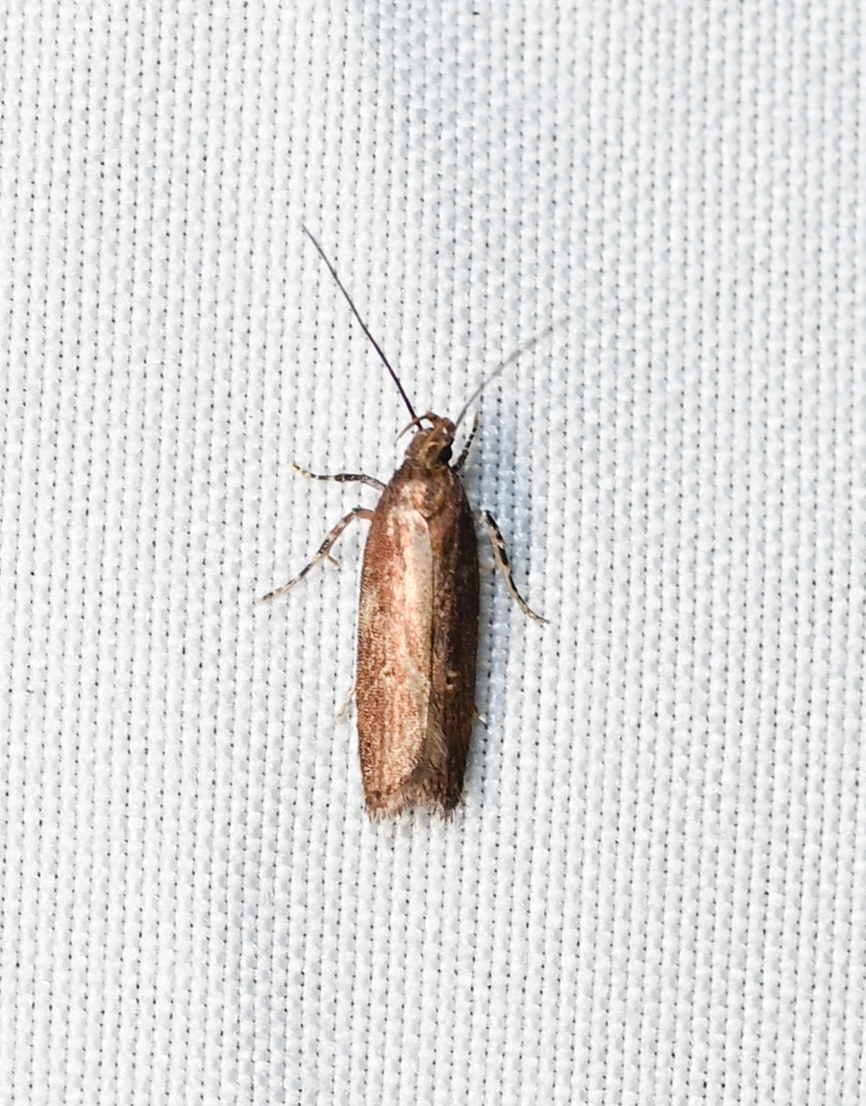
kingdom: Animalia
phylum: Arthropoda
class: Insecta
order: Lepidoptera
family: Gelechiidae
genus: Chionodes
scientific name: Chionodes discoocellella
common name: Eye-ringed chionodes moth
